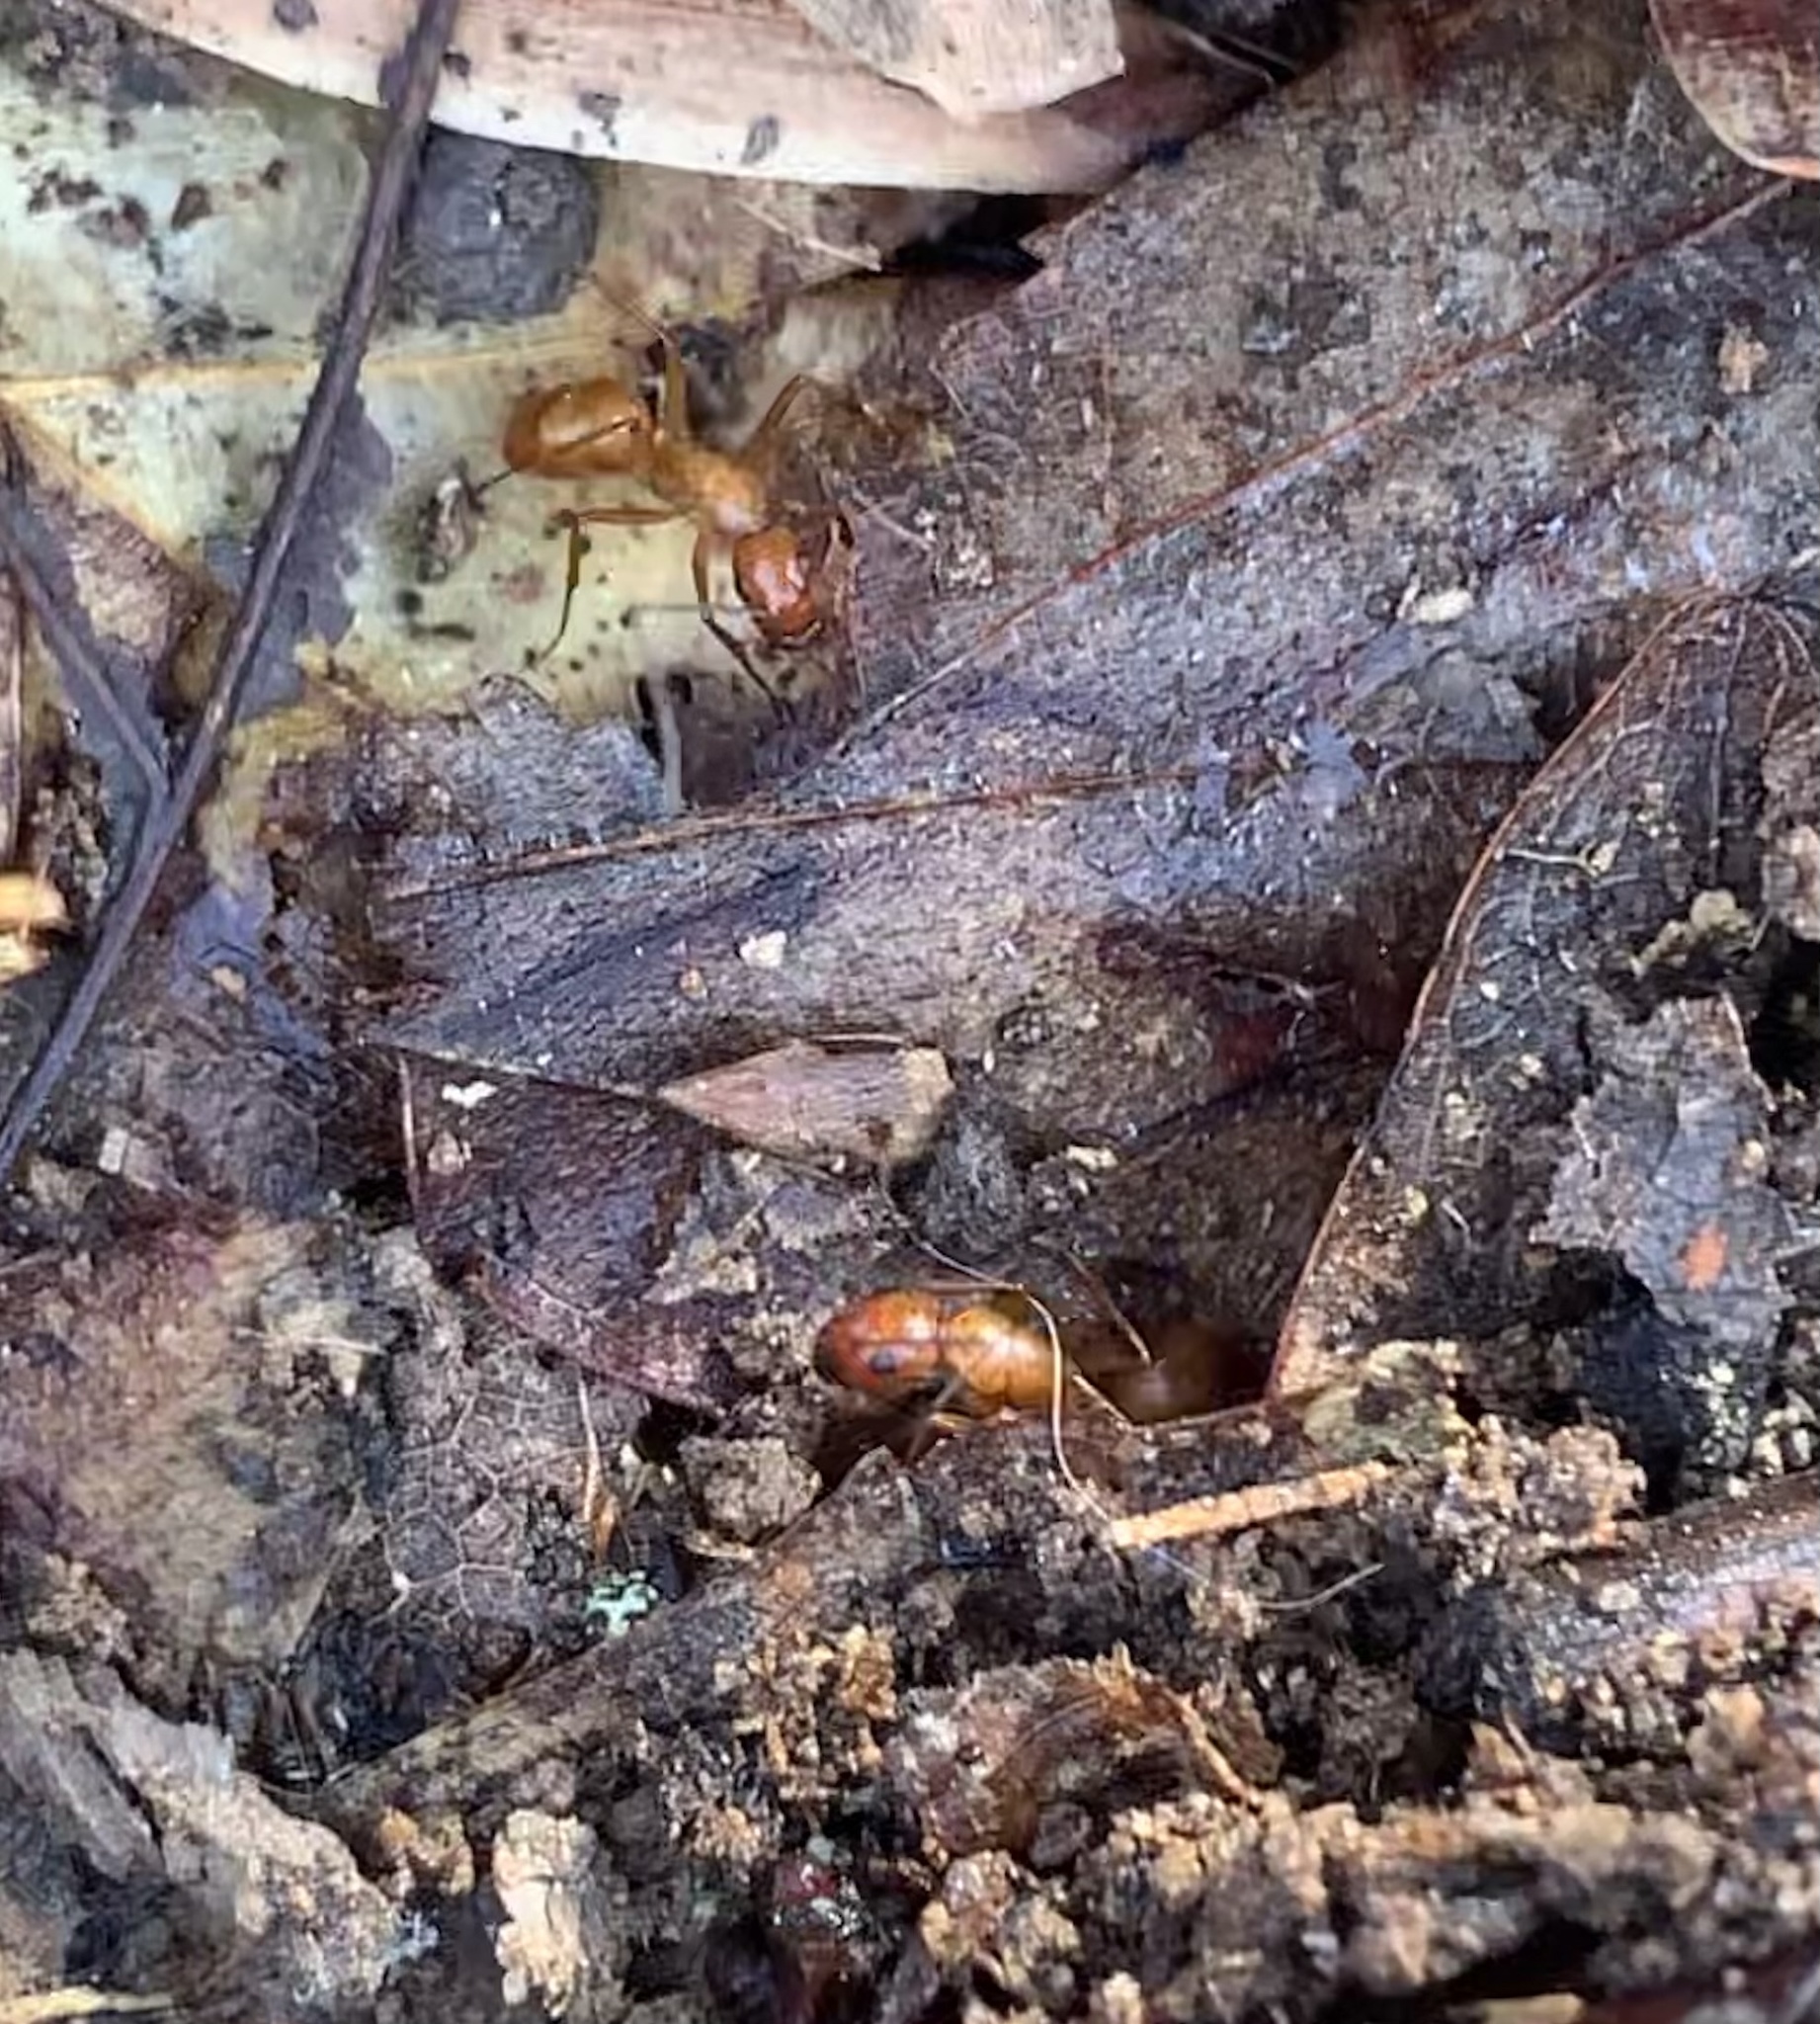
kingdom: Animalia
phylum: Arthropoda
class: Insecta
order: Hymenoptera
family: Formicidae
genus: Camponotus
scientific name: Camponotus castaneus
